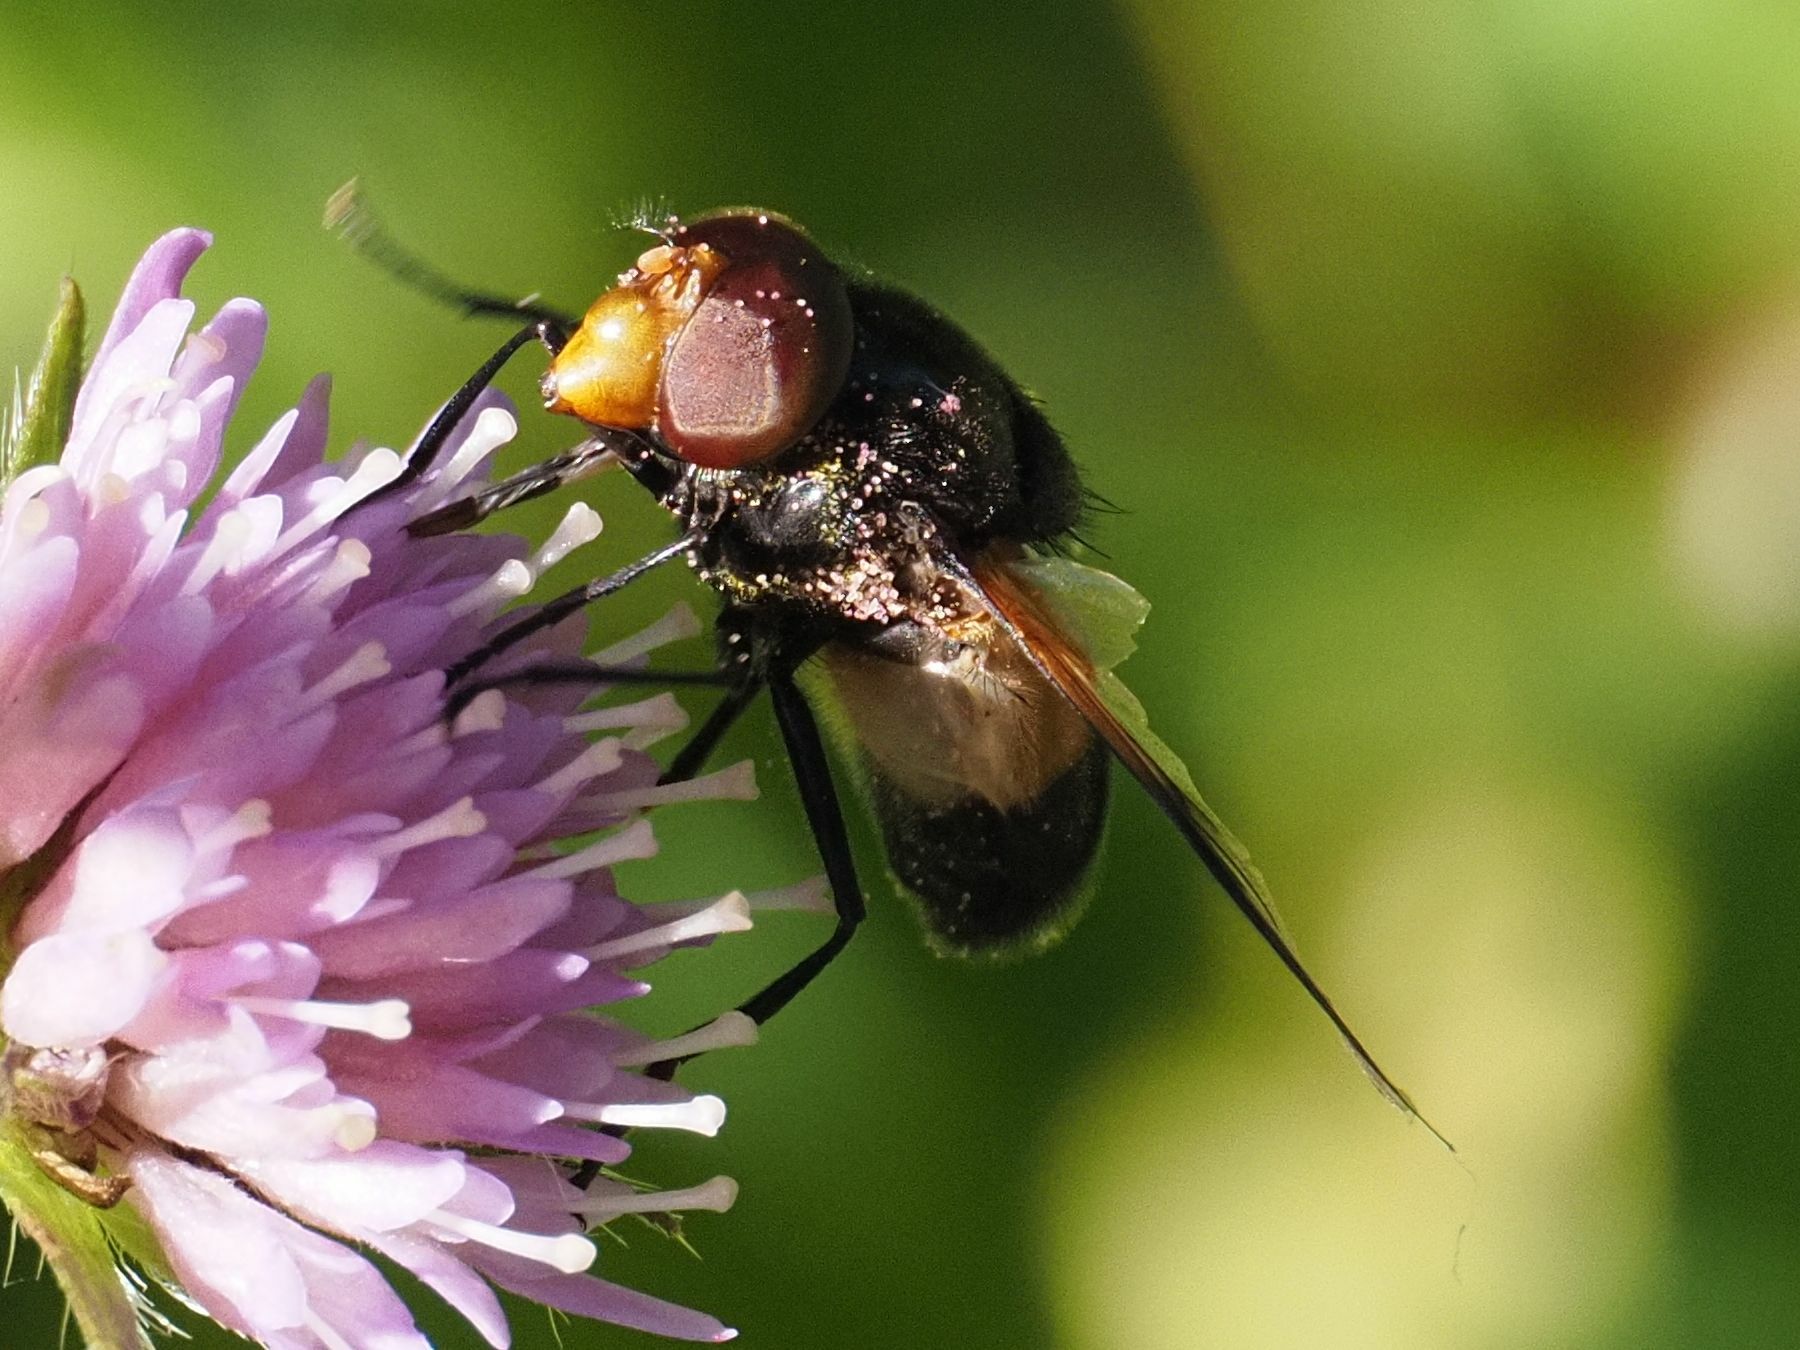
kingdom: Animalia
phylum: Arthropoda
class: Insecta
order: Diptera
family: Syrphidae
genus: Volucella
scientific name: Volucella pellucens
